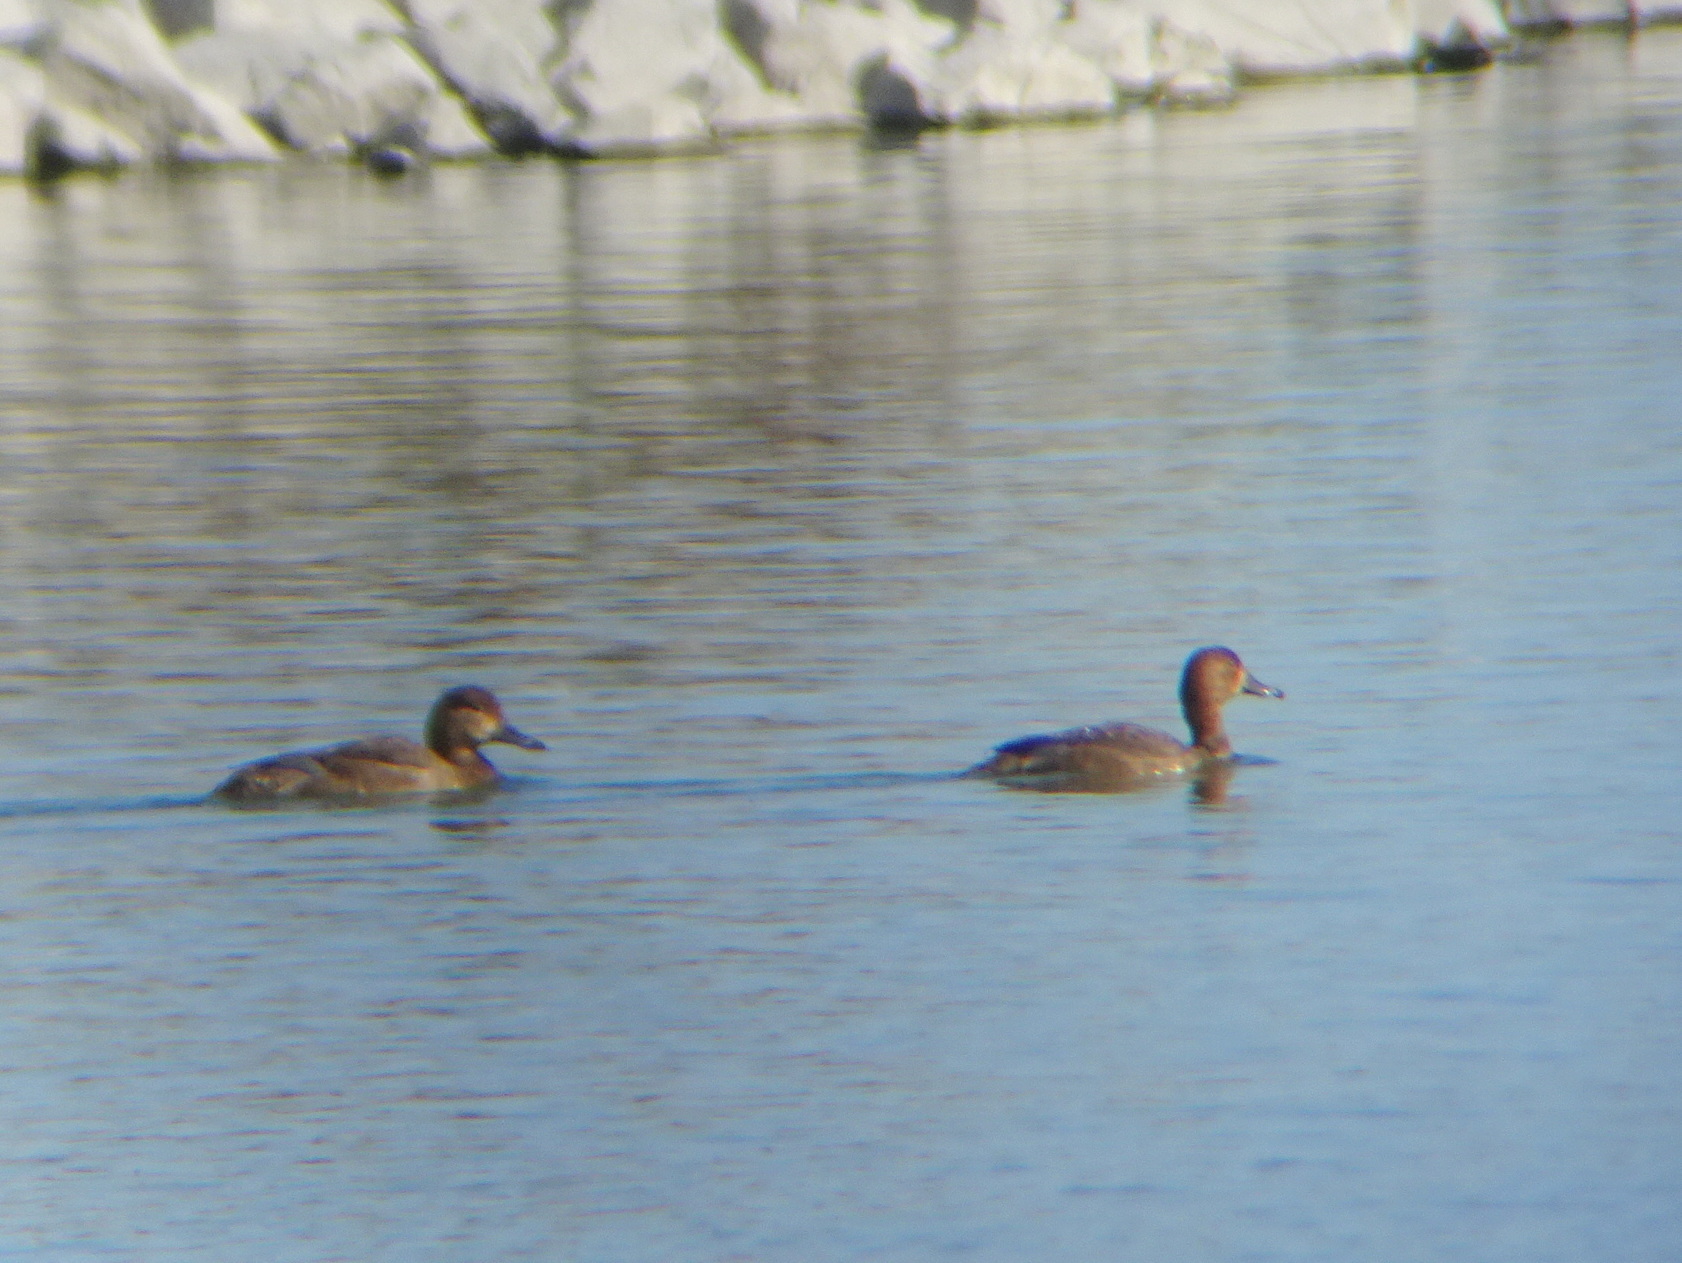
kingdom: Animalia
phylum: Chordata
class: Aves
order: Anseriformes
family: Anatidae
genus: Aythya
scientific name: Aythya americana
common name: Redhead
